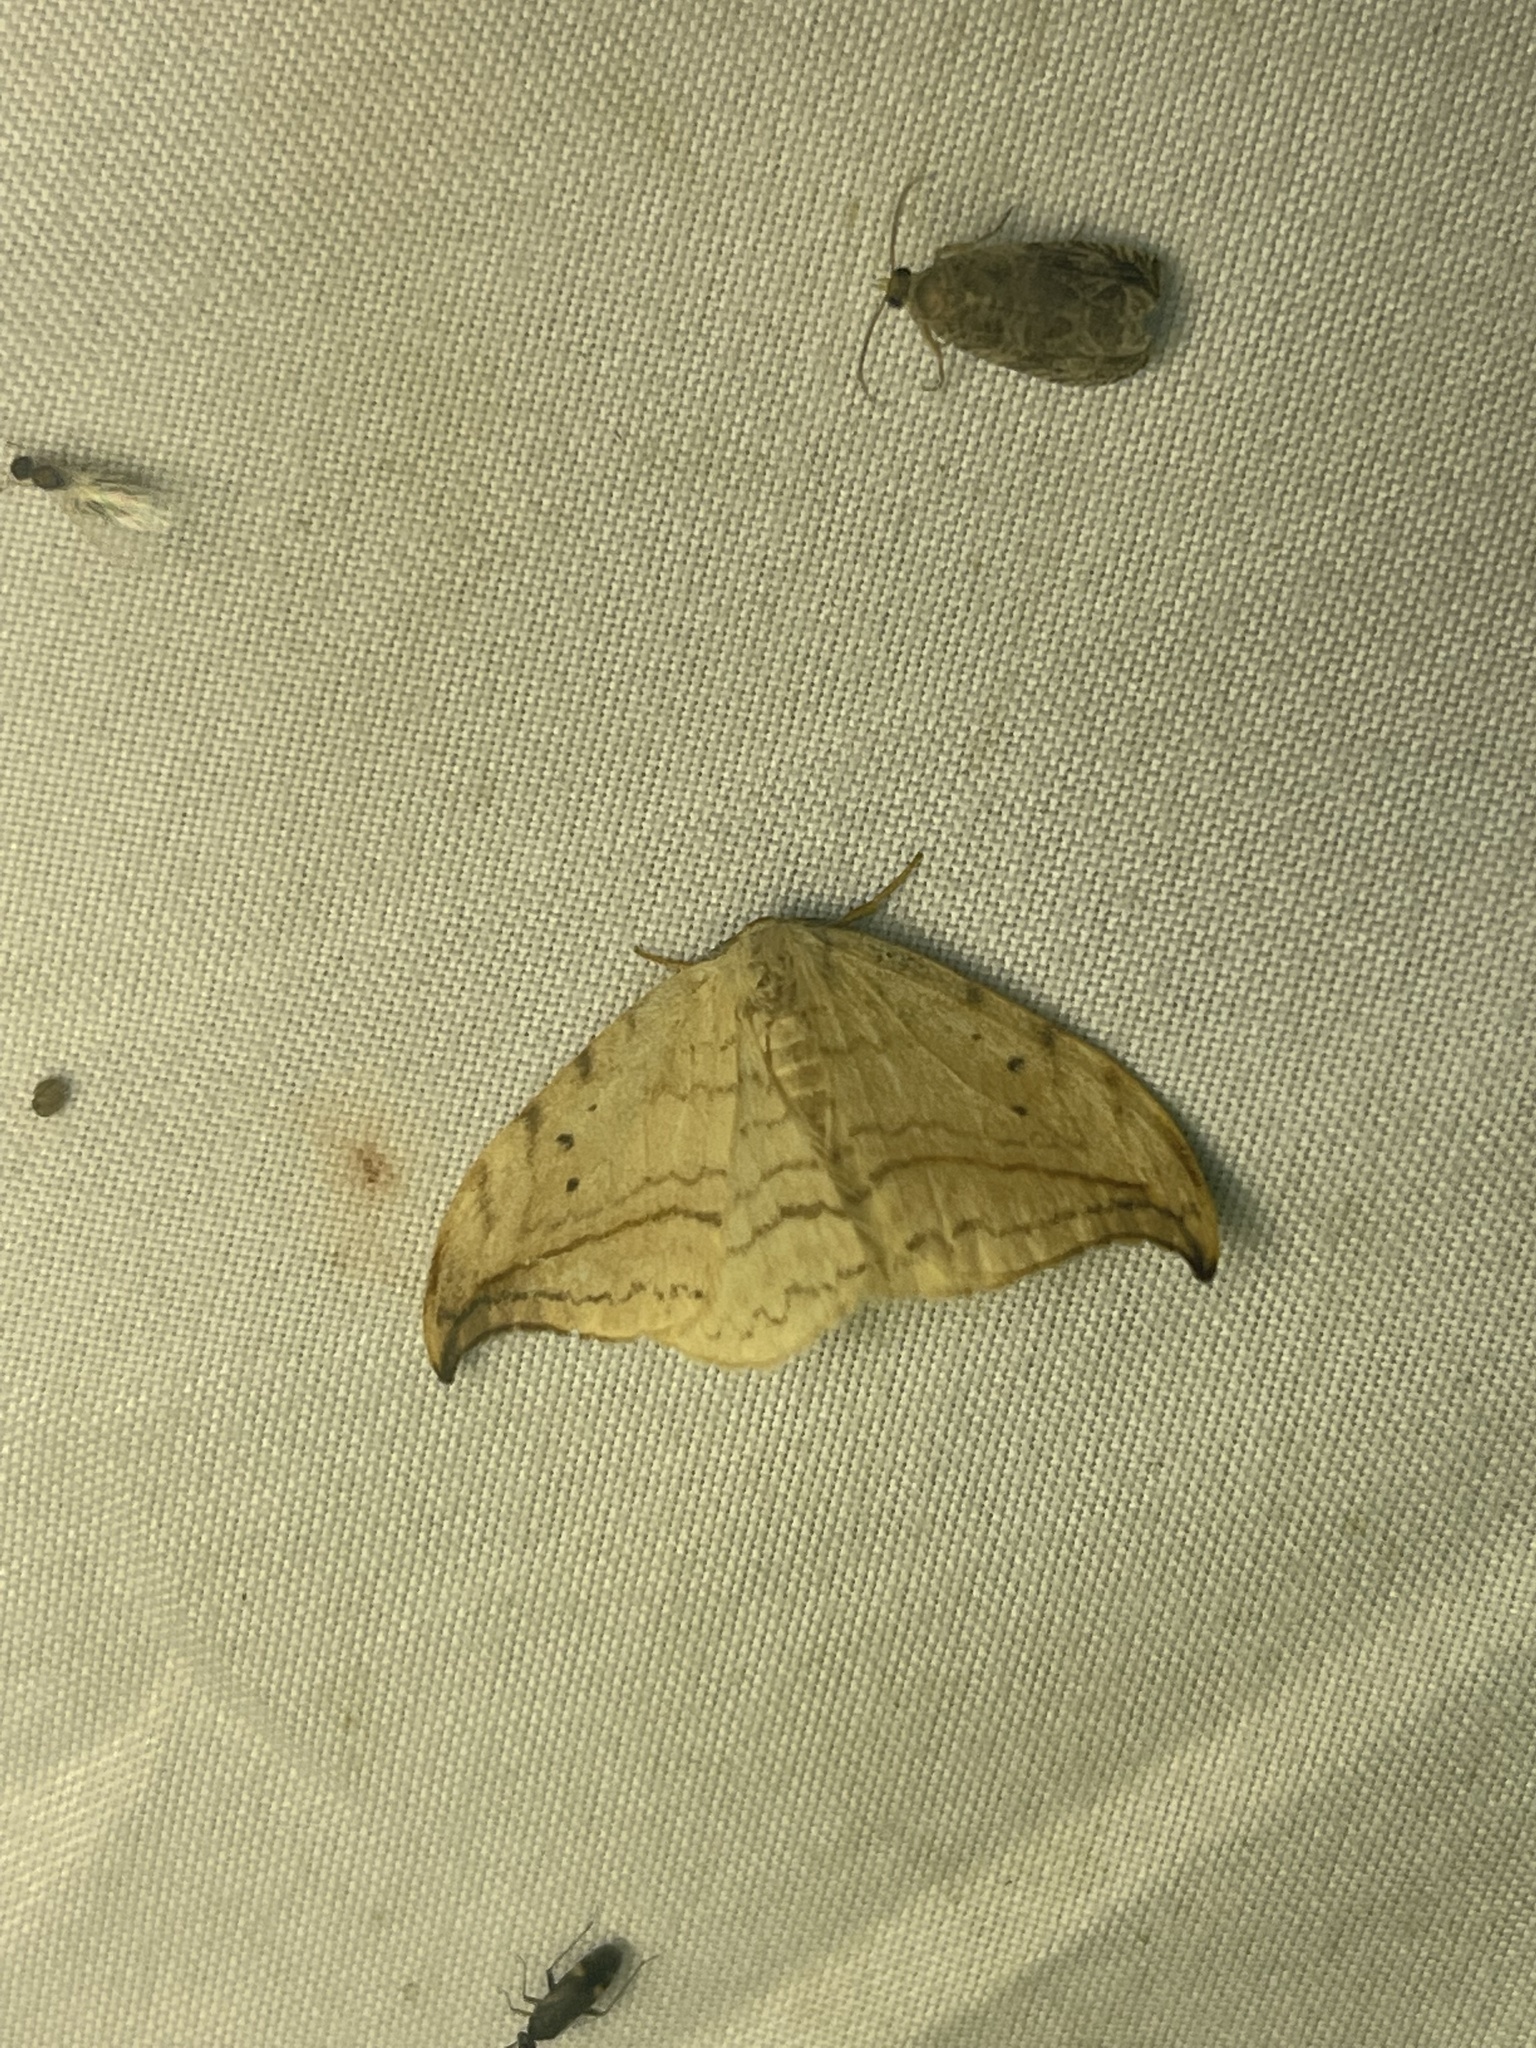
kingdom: Animalia
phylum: Arthropoda
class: Insecta
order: Lepidoptera
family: Drepanidae
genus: Drepana
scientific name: Drepana arcuata
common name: Arched hooktip moth
